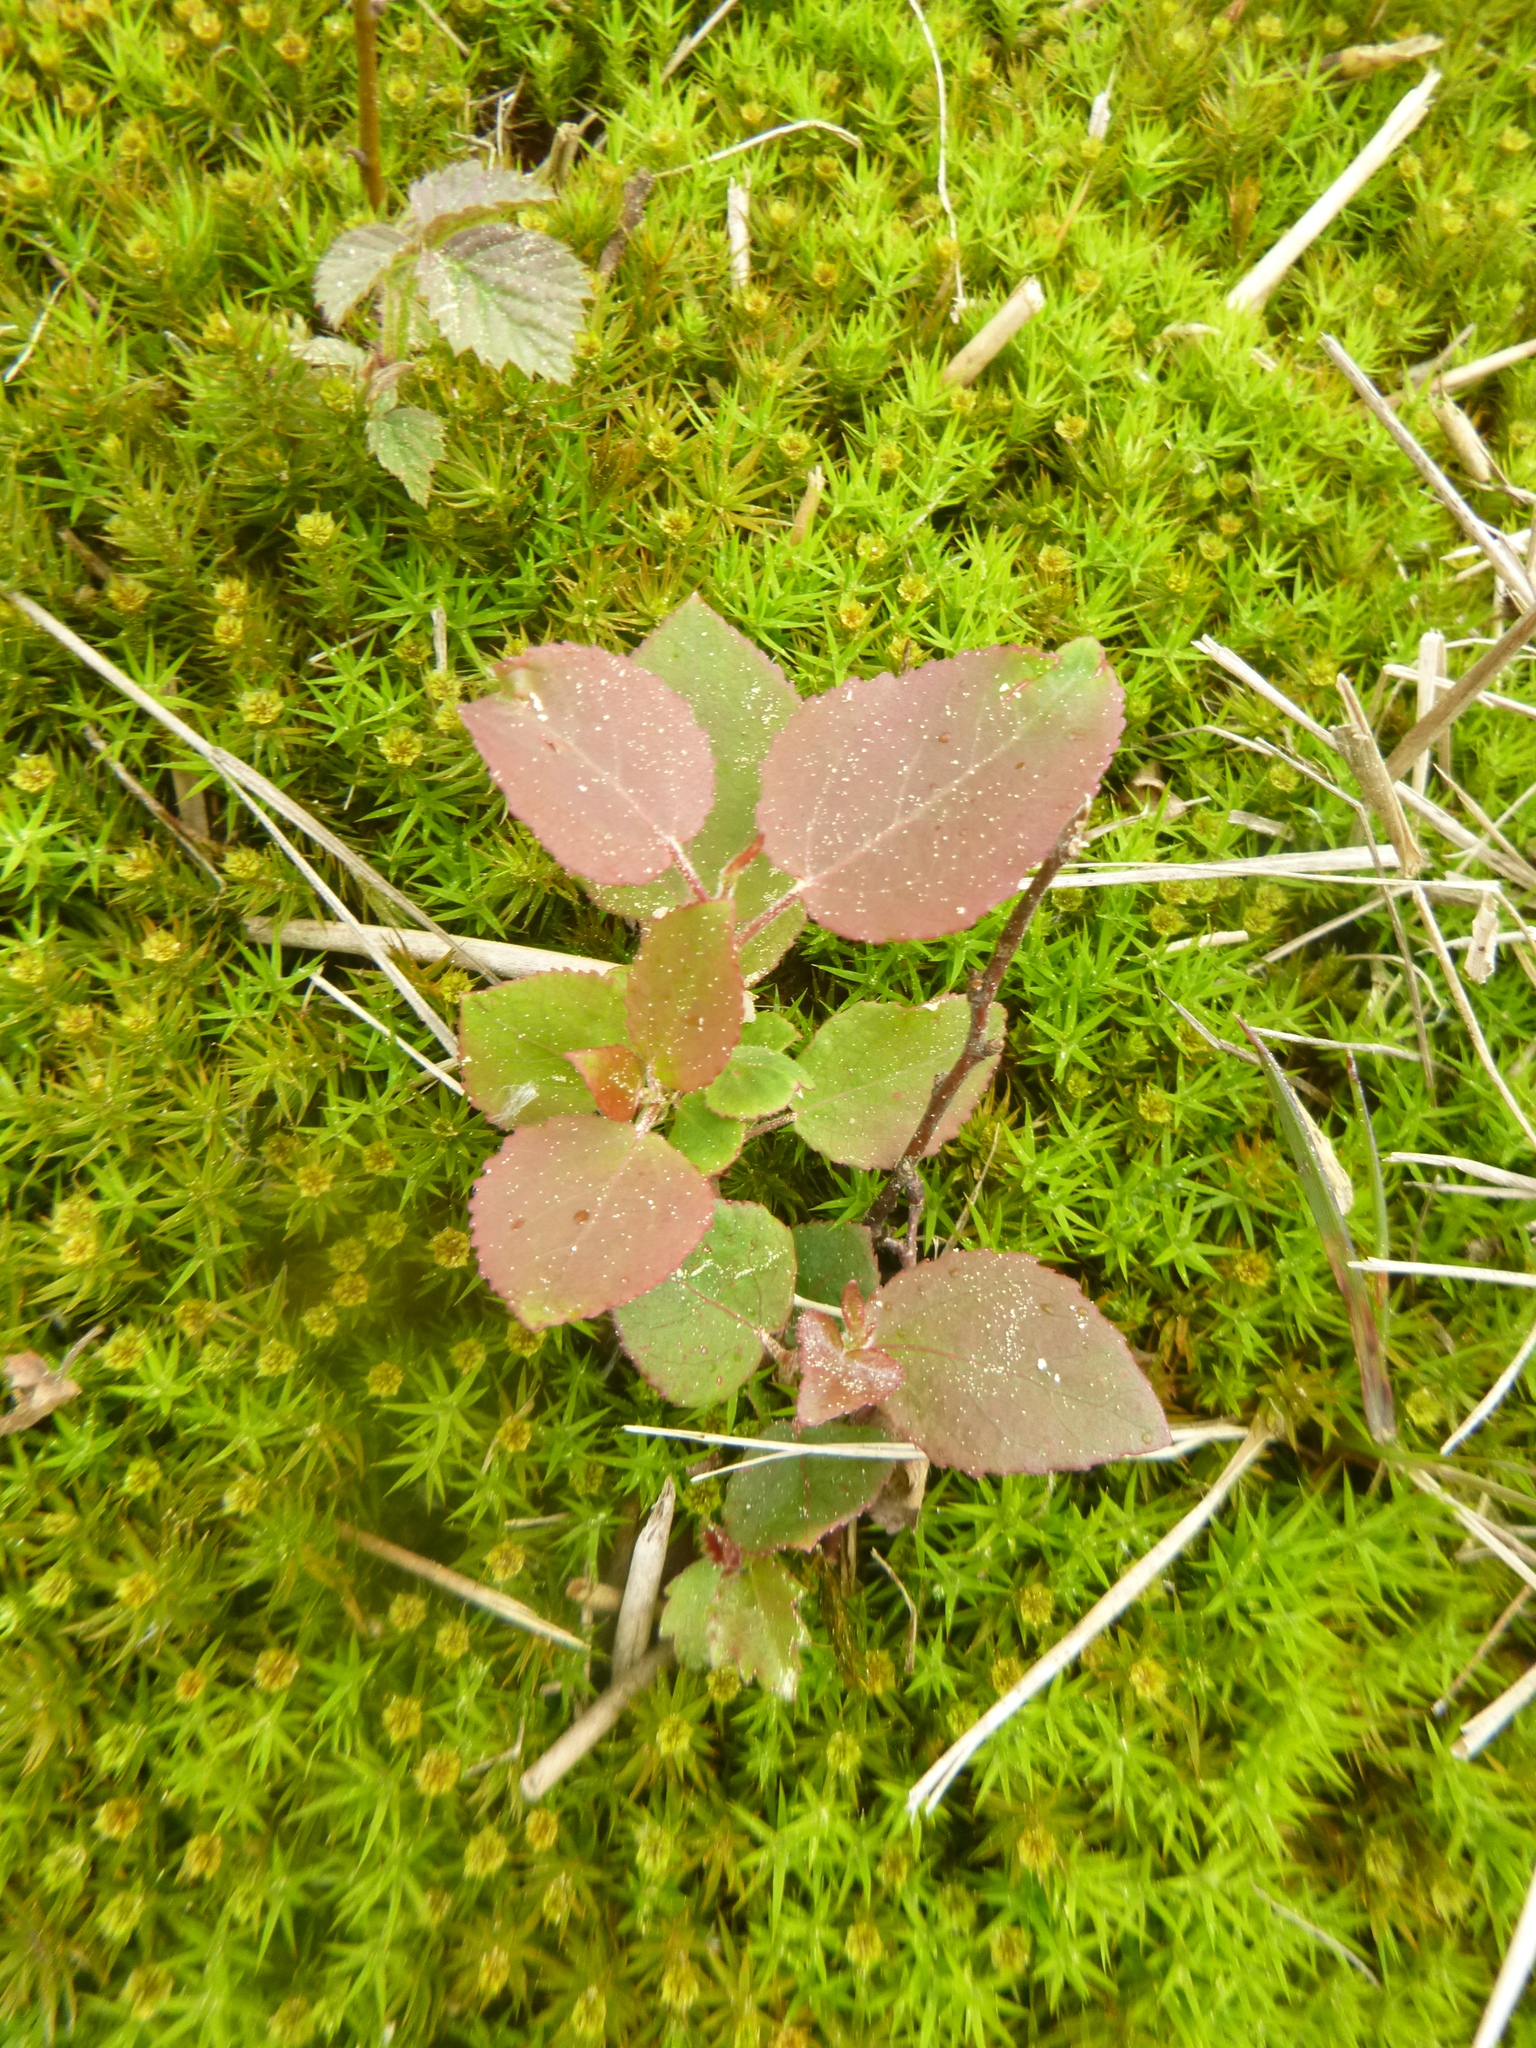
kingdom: Plantae
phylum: Tracheophyta
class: Magnoliopsida
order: Malpighiales
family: Salicaceae
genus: Populus
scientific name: Populus tremula
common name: European aspen
